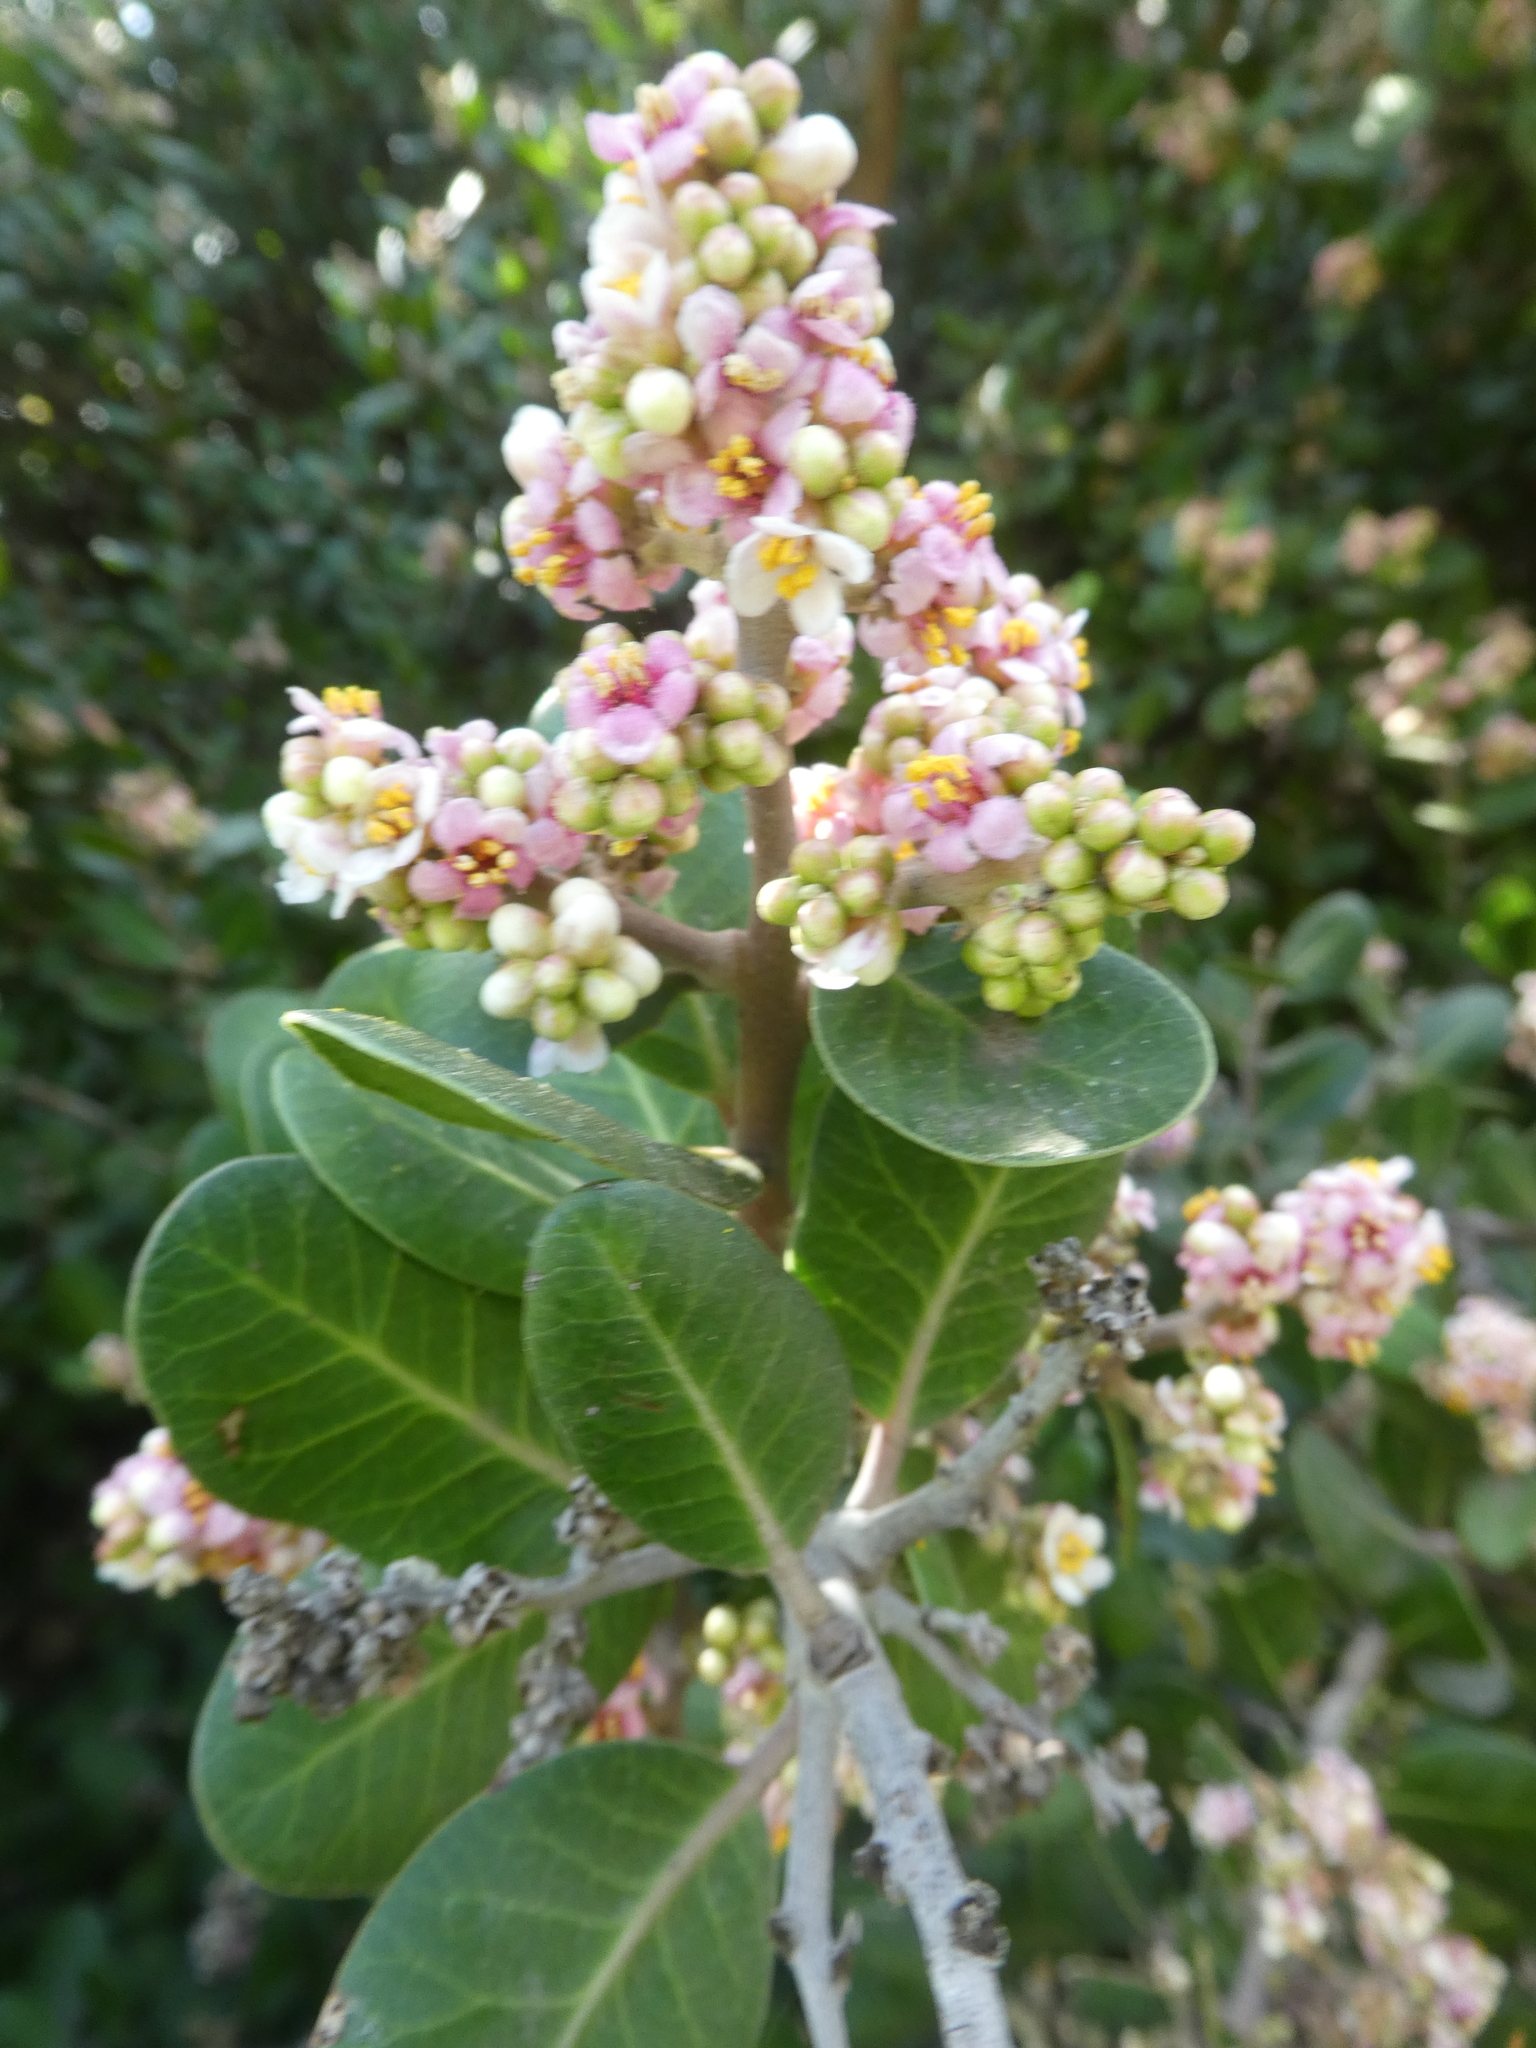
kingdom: Plantae
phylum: Tracheophyta
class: Magnoliopsida
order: Sapindales
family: Anacardiaceae
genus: Rhus
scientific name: Rhus integrifolia
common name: Lemonade sumac
